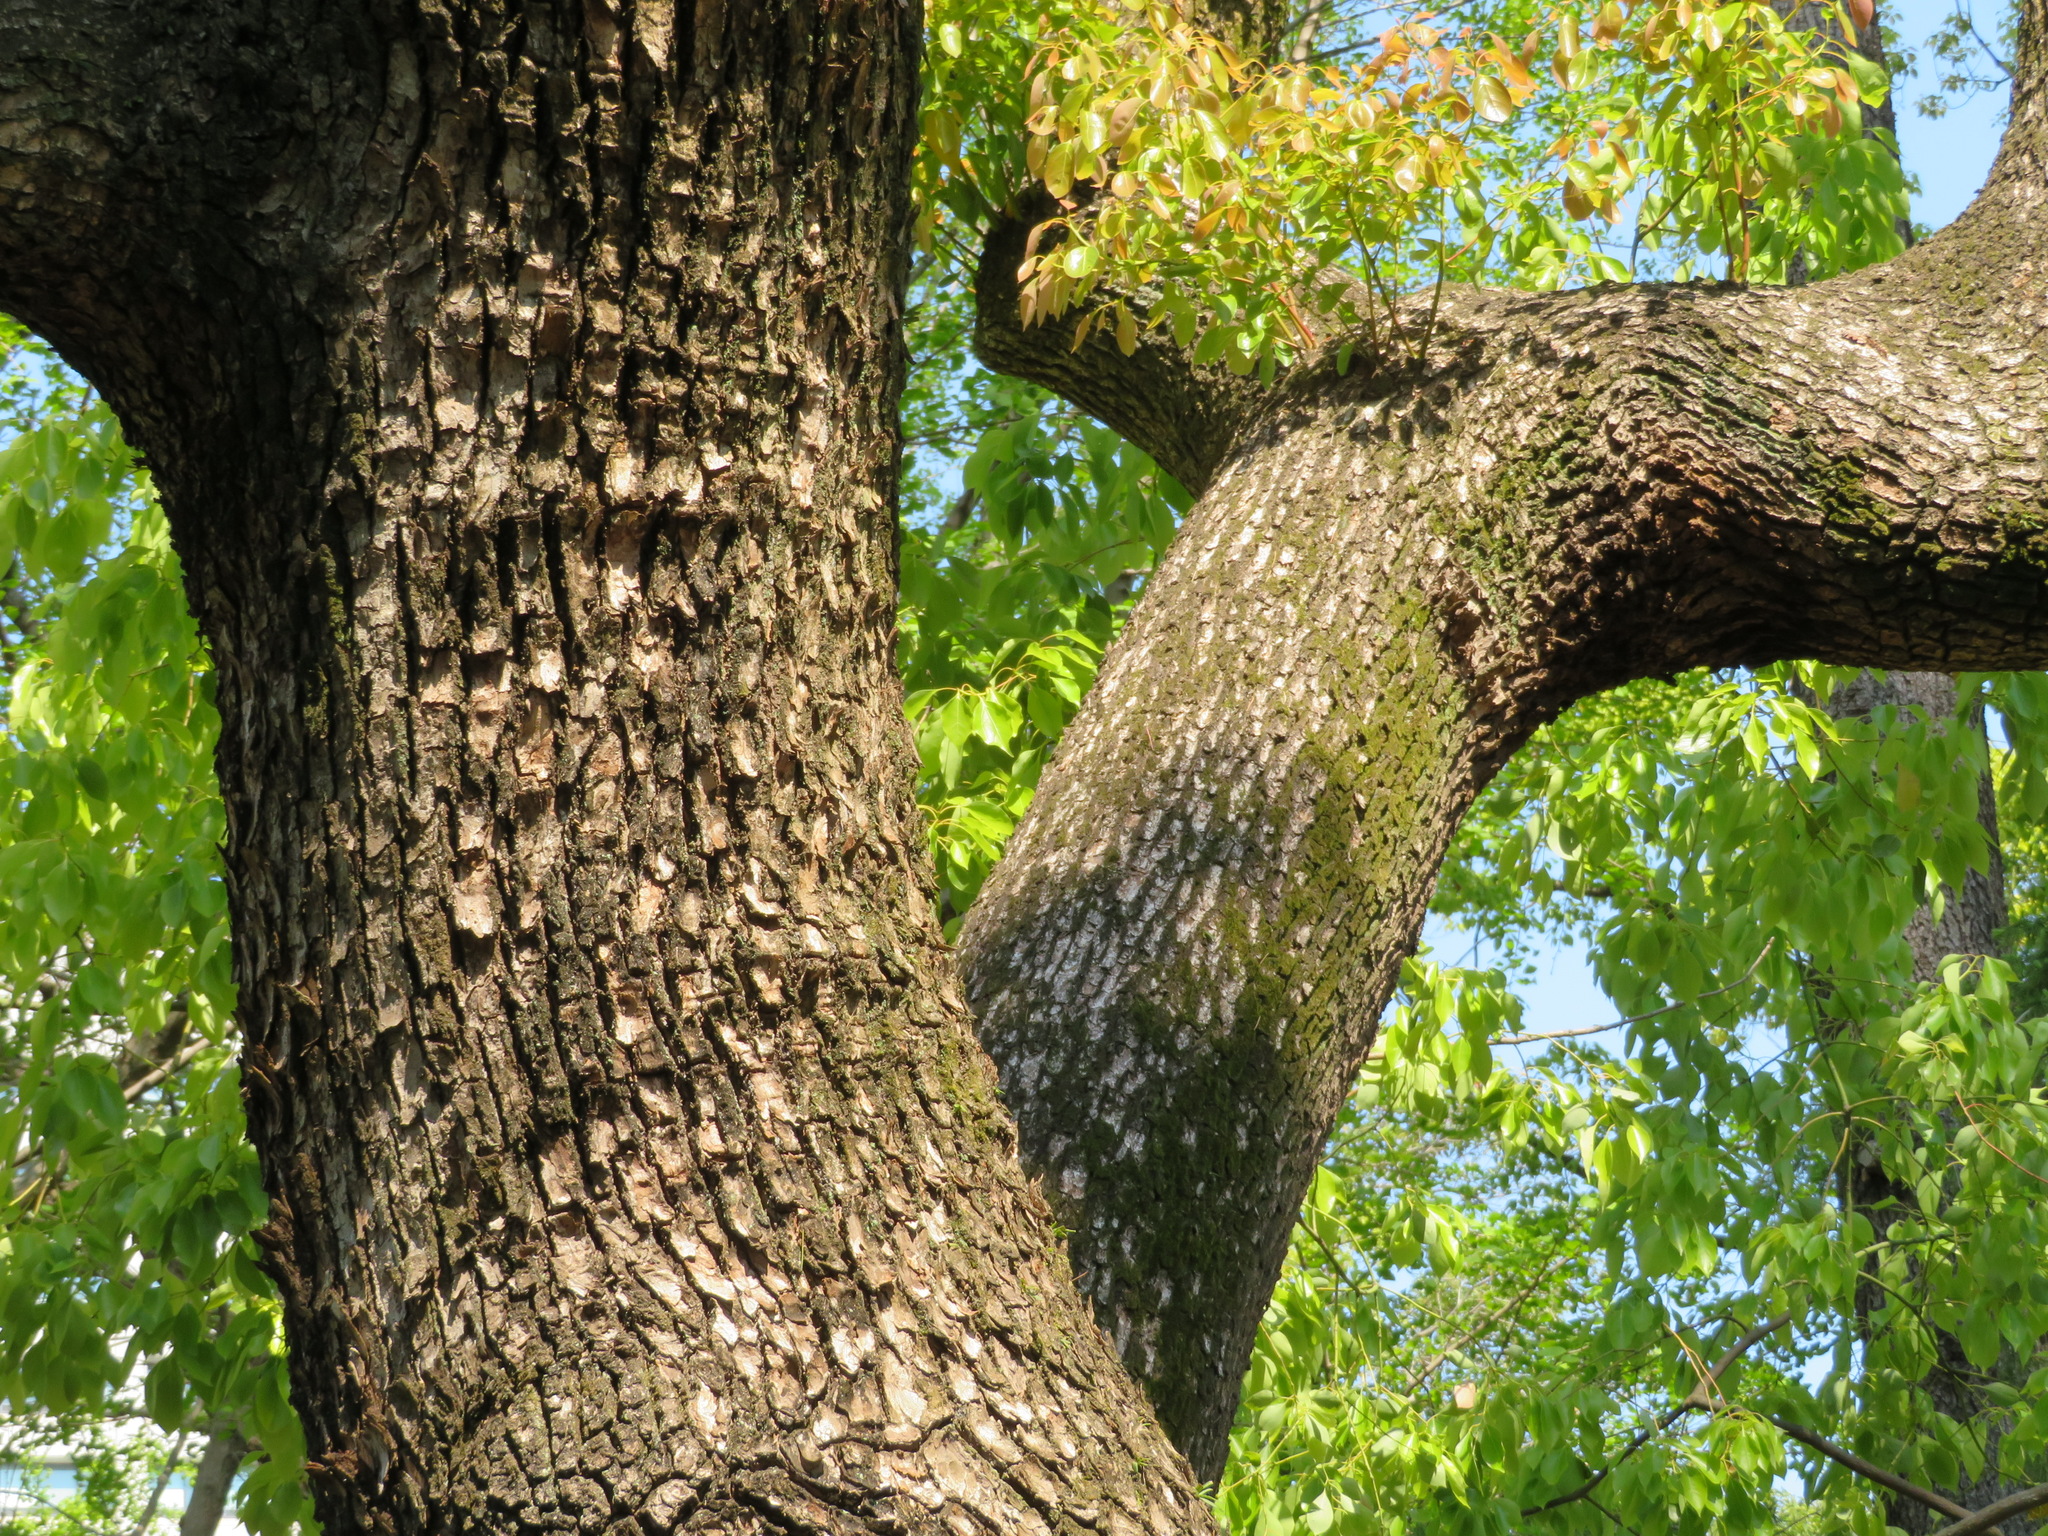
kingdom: Plantae
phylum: Tracheophyta
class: Magnoliopsida
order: Laurales
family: Lauraceae
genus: Cinnamomum
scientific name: Cinnamomum camphora
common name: Camphortree
